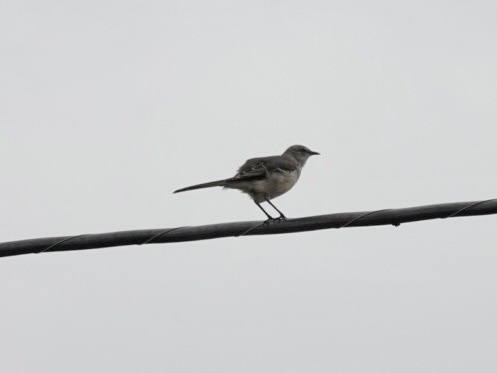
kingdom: Animalia
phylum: Chordata
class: Aves
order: Passeriformes
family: Mimidae
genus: Mimus
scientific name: Mimus polyglottos
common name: Northern mockingbird
